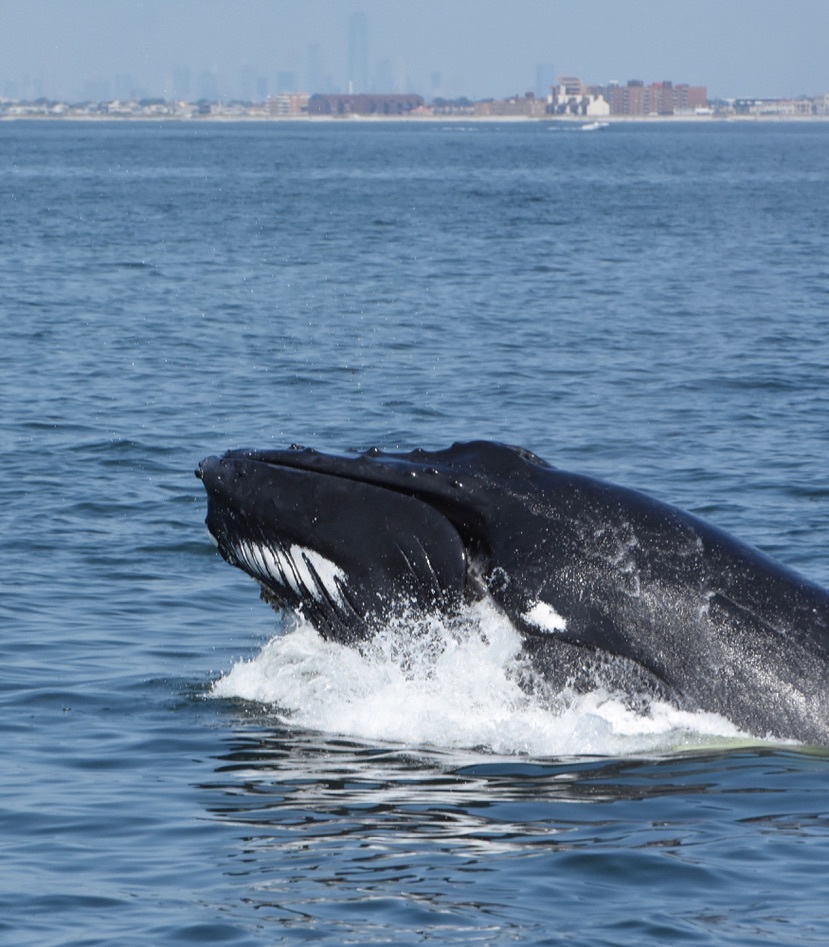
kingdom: Animalia
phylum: Chordata
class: Mammalia
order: Cetacea
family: Balaenopteridae
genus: Megaptera
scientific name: Megaptera novaeangliae
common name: Humpback whale
